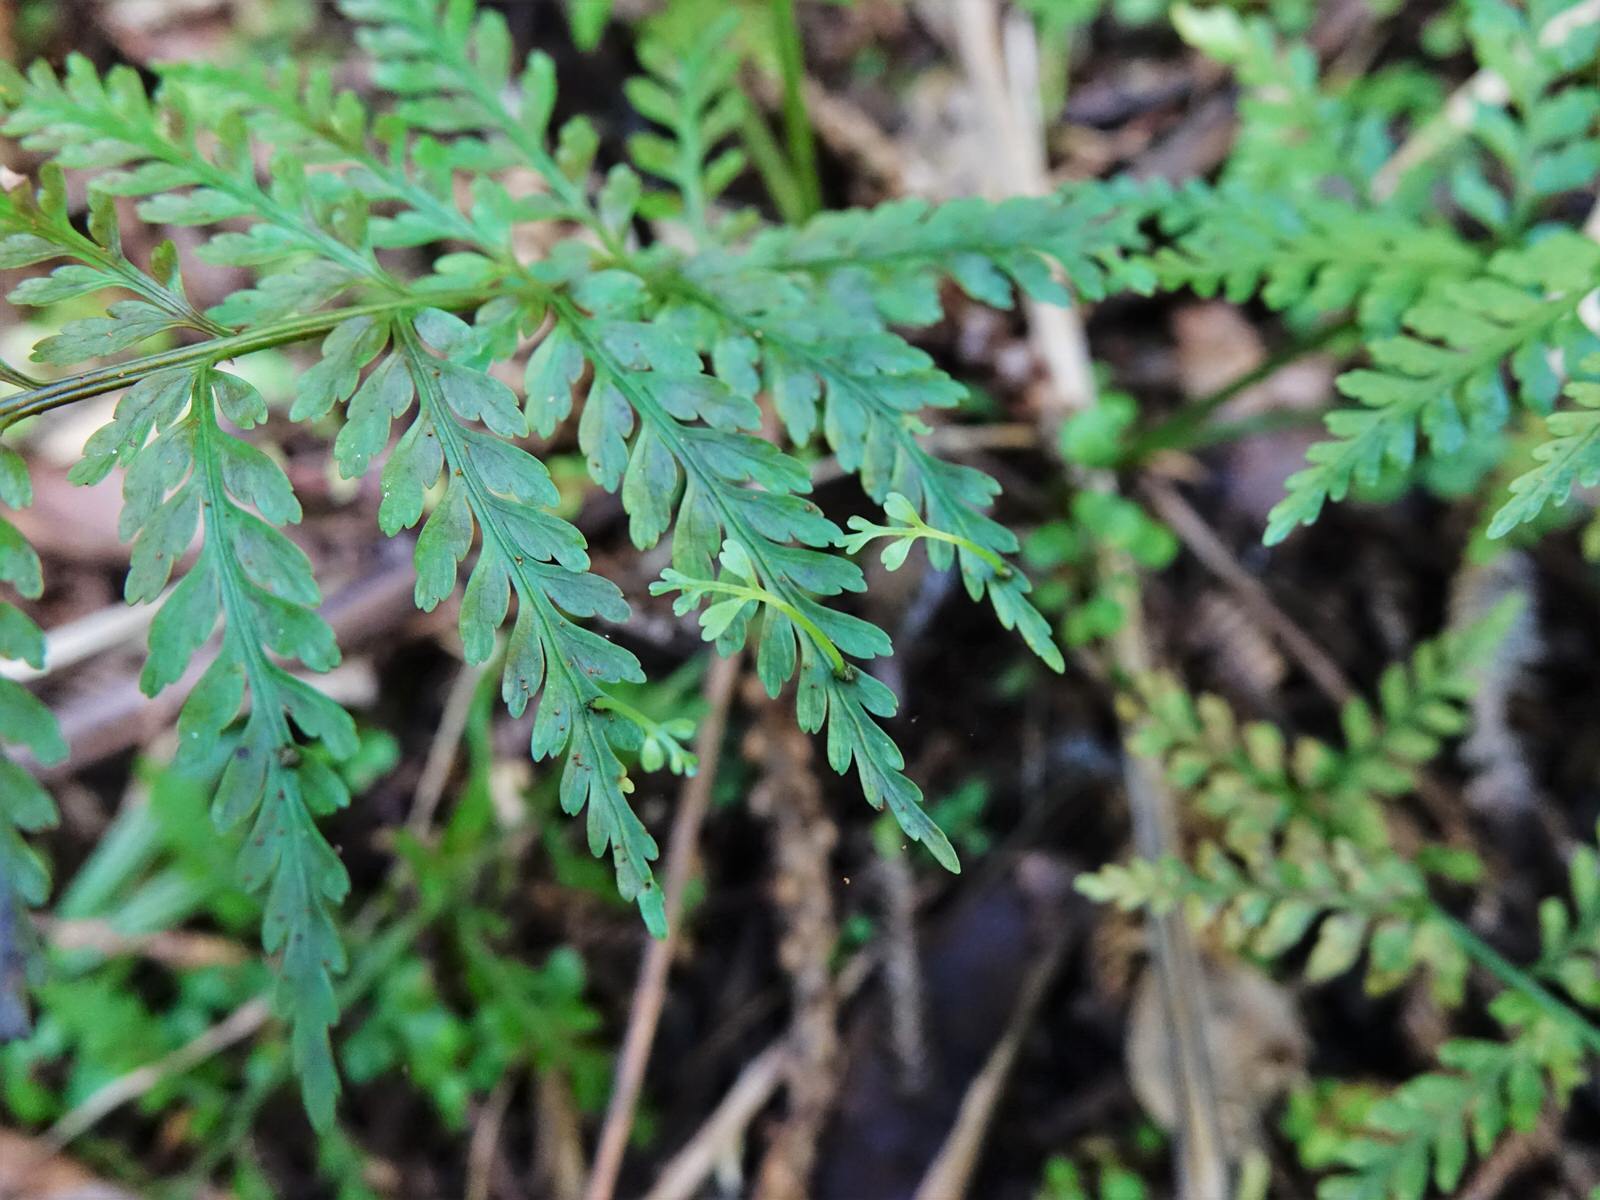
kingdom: Plantae
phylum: Tracheophyta
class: Polypodiopsida
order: Polypodiales
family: Aspleniaceae
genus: Asplenium
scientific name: Asplenium bulbiferum
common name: Mother fern
